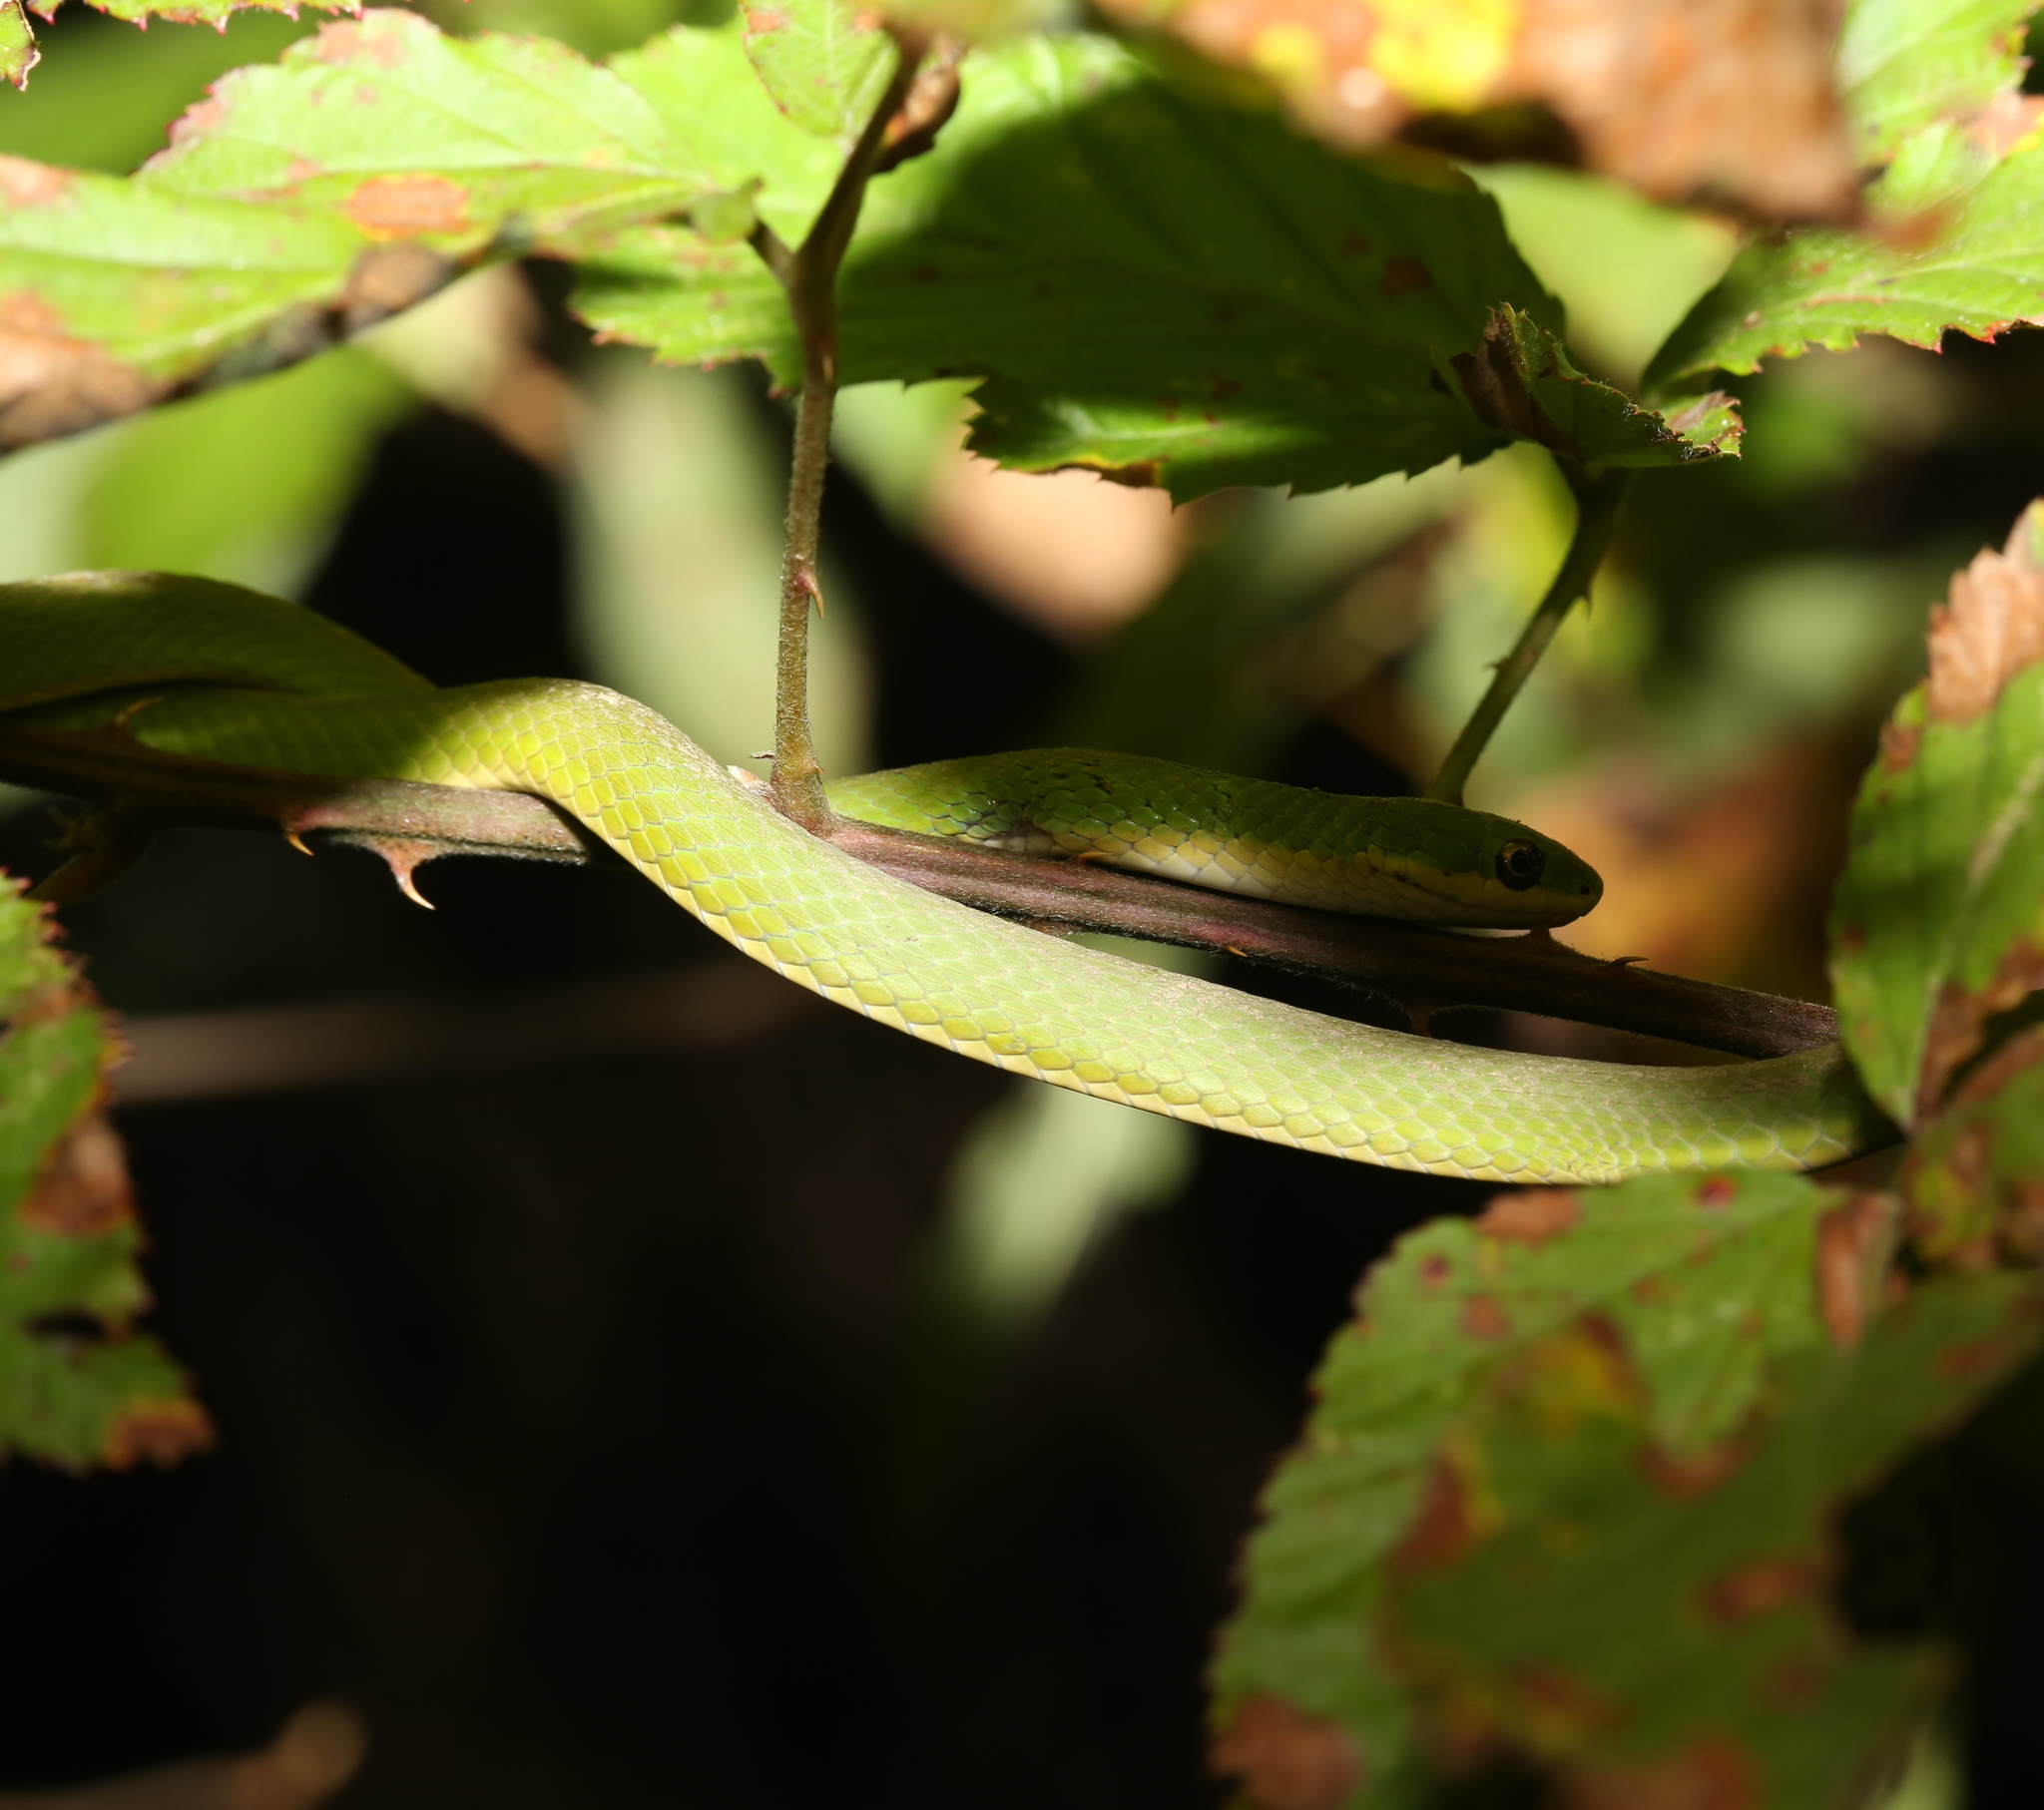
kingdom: Animalia
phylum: Chordata
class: Squamata
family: Colubridae
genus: Opheodrys
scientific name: Opheodrys aestivus
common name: Rough greensnake
